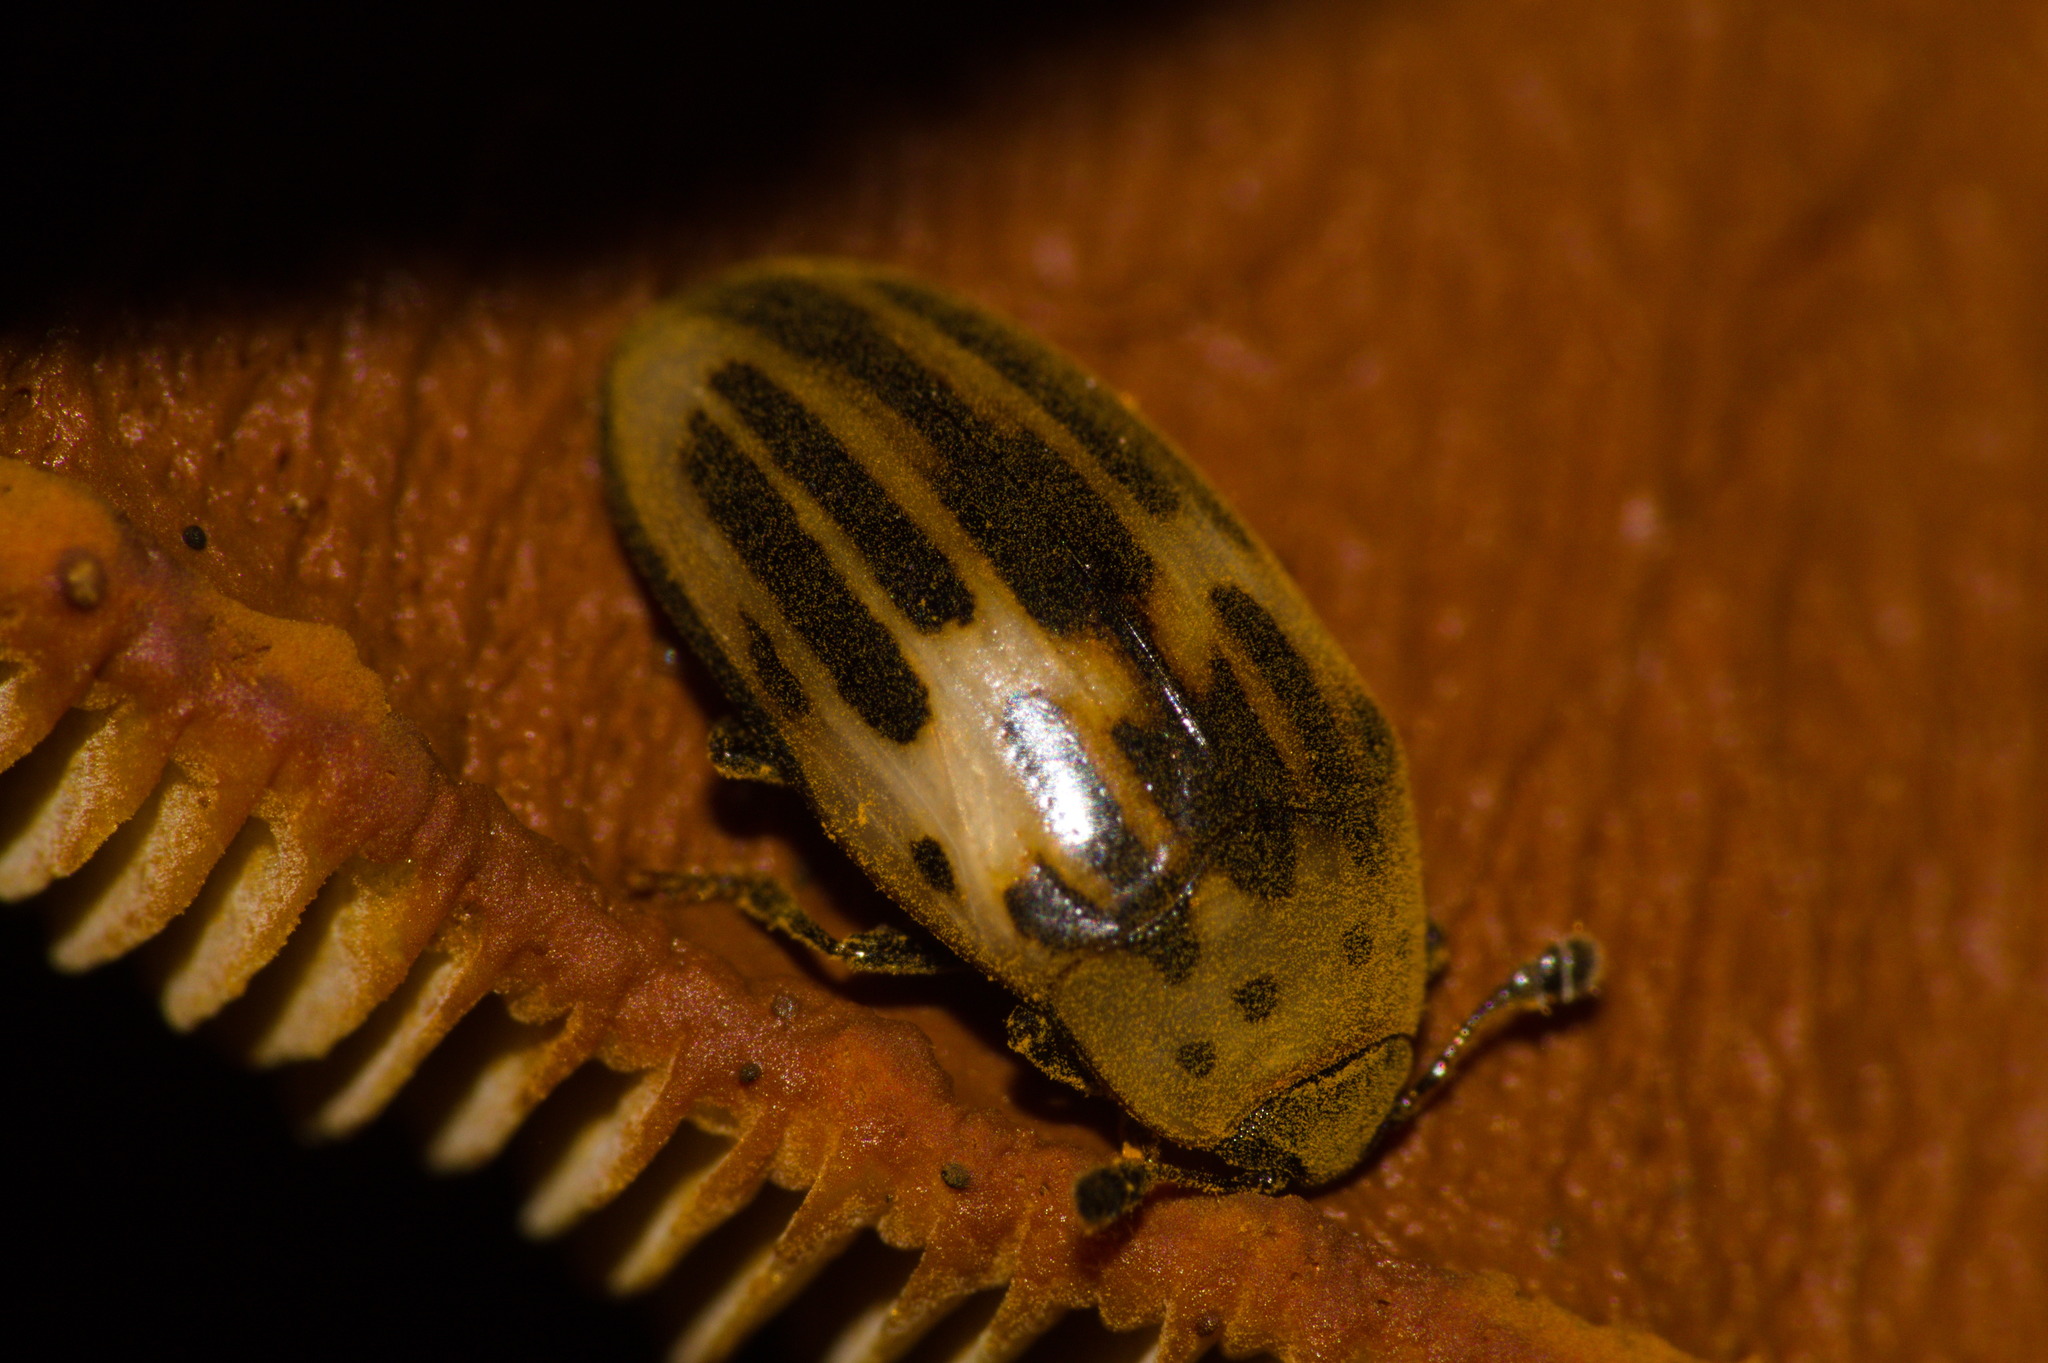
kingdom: Animalia
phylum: Arthropoda
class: Insecta
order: Coleoptera
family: Erotylidae
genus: Ischyrus
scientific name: Ischyrus
